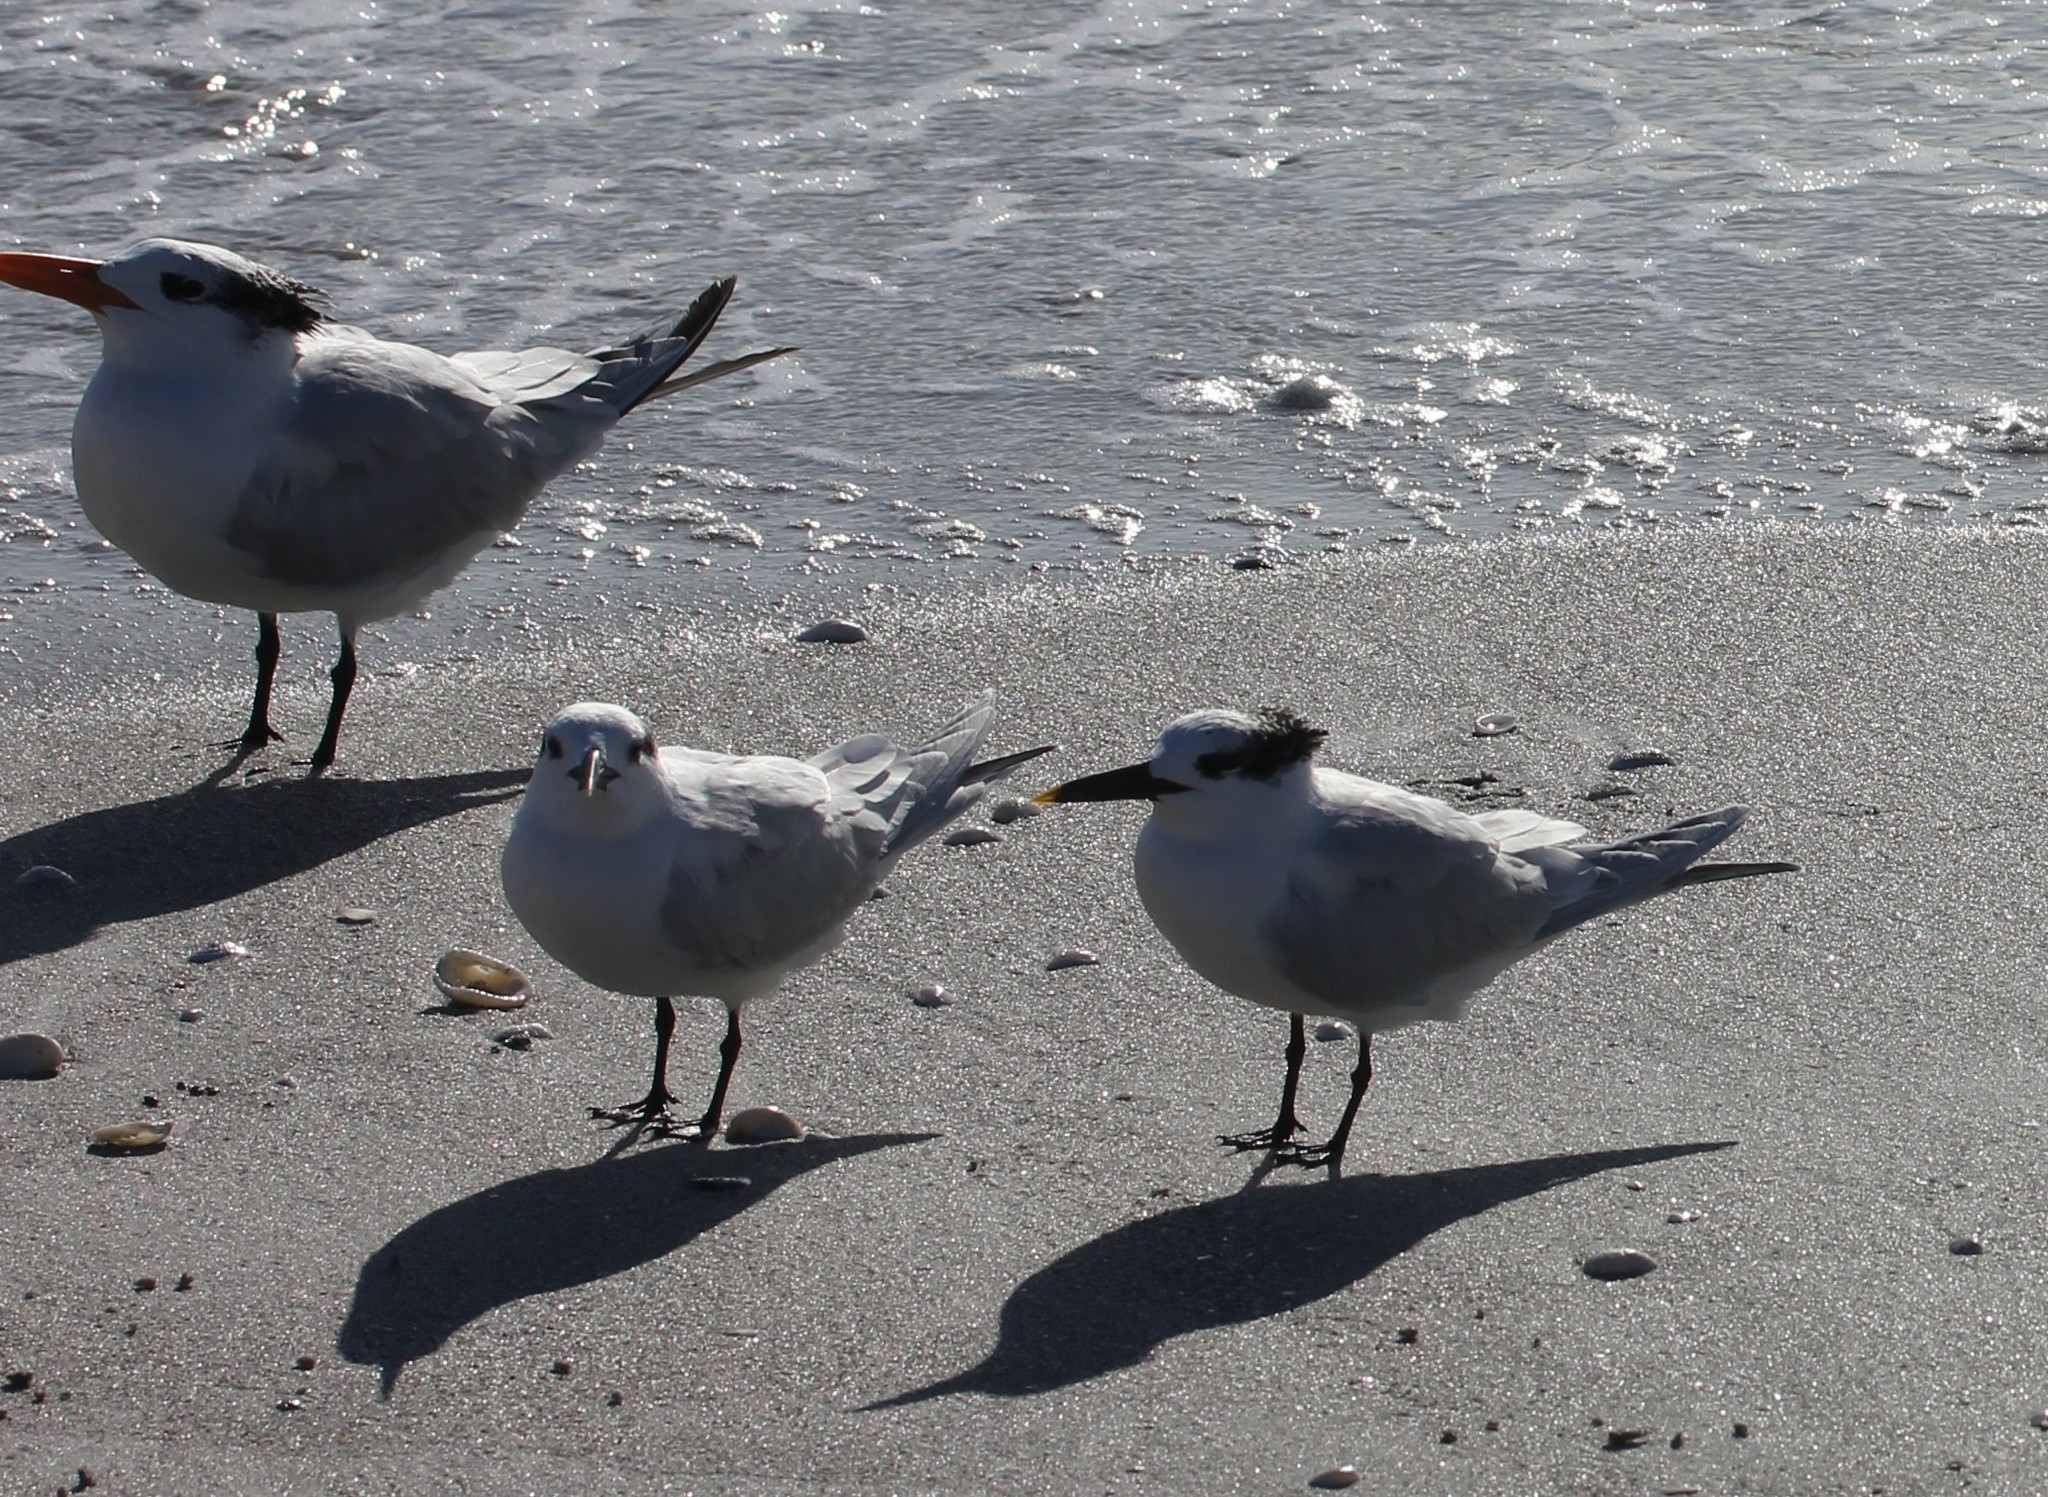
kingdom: Animalia
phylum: Chordata
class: Aves
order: Charadriiformes
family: Laridae
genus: Thalasseus
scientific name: Thalasseus sandvicensis
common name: Sandwich tern
